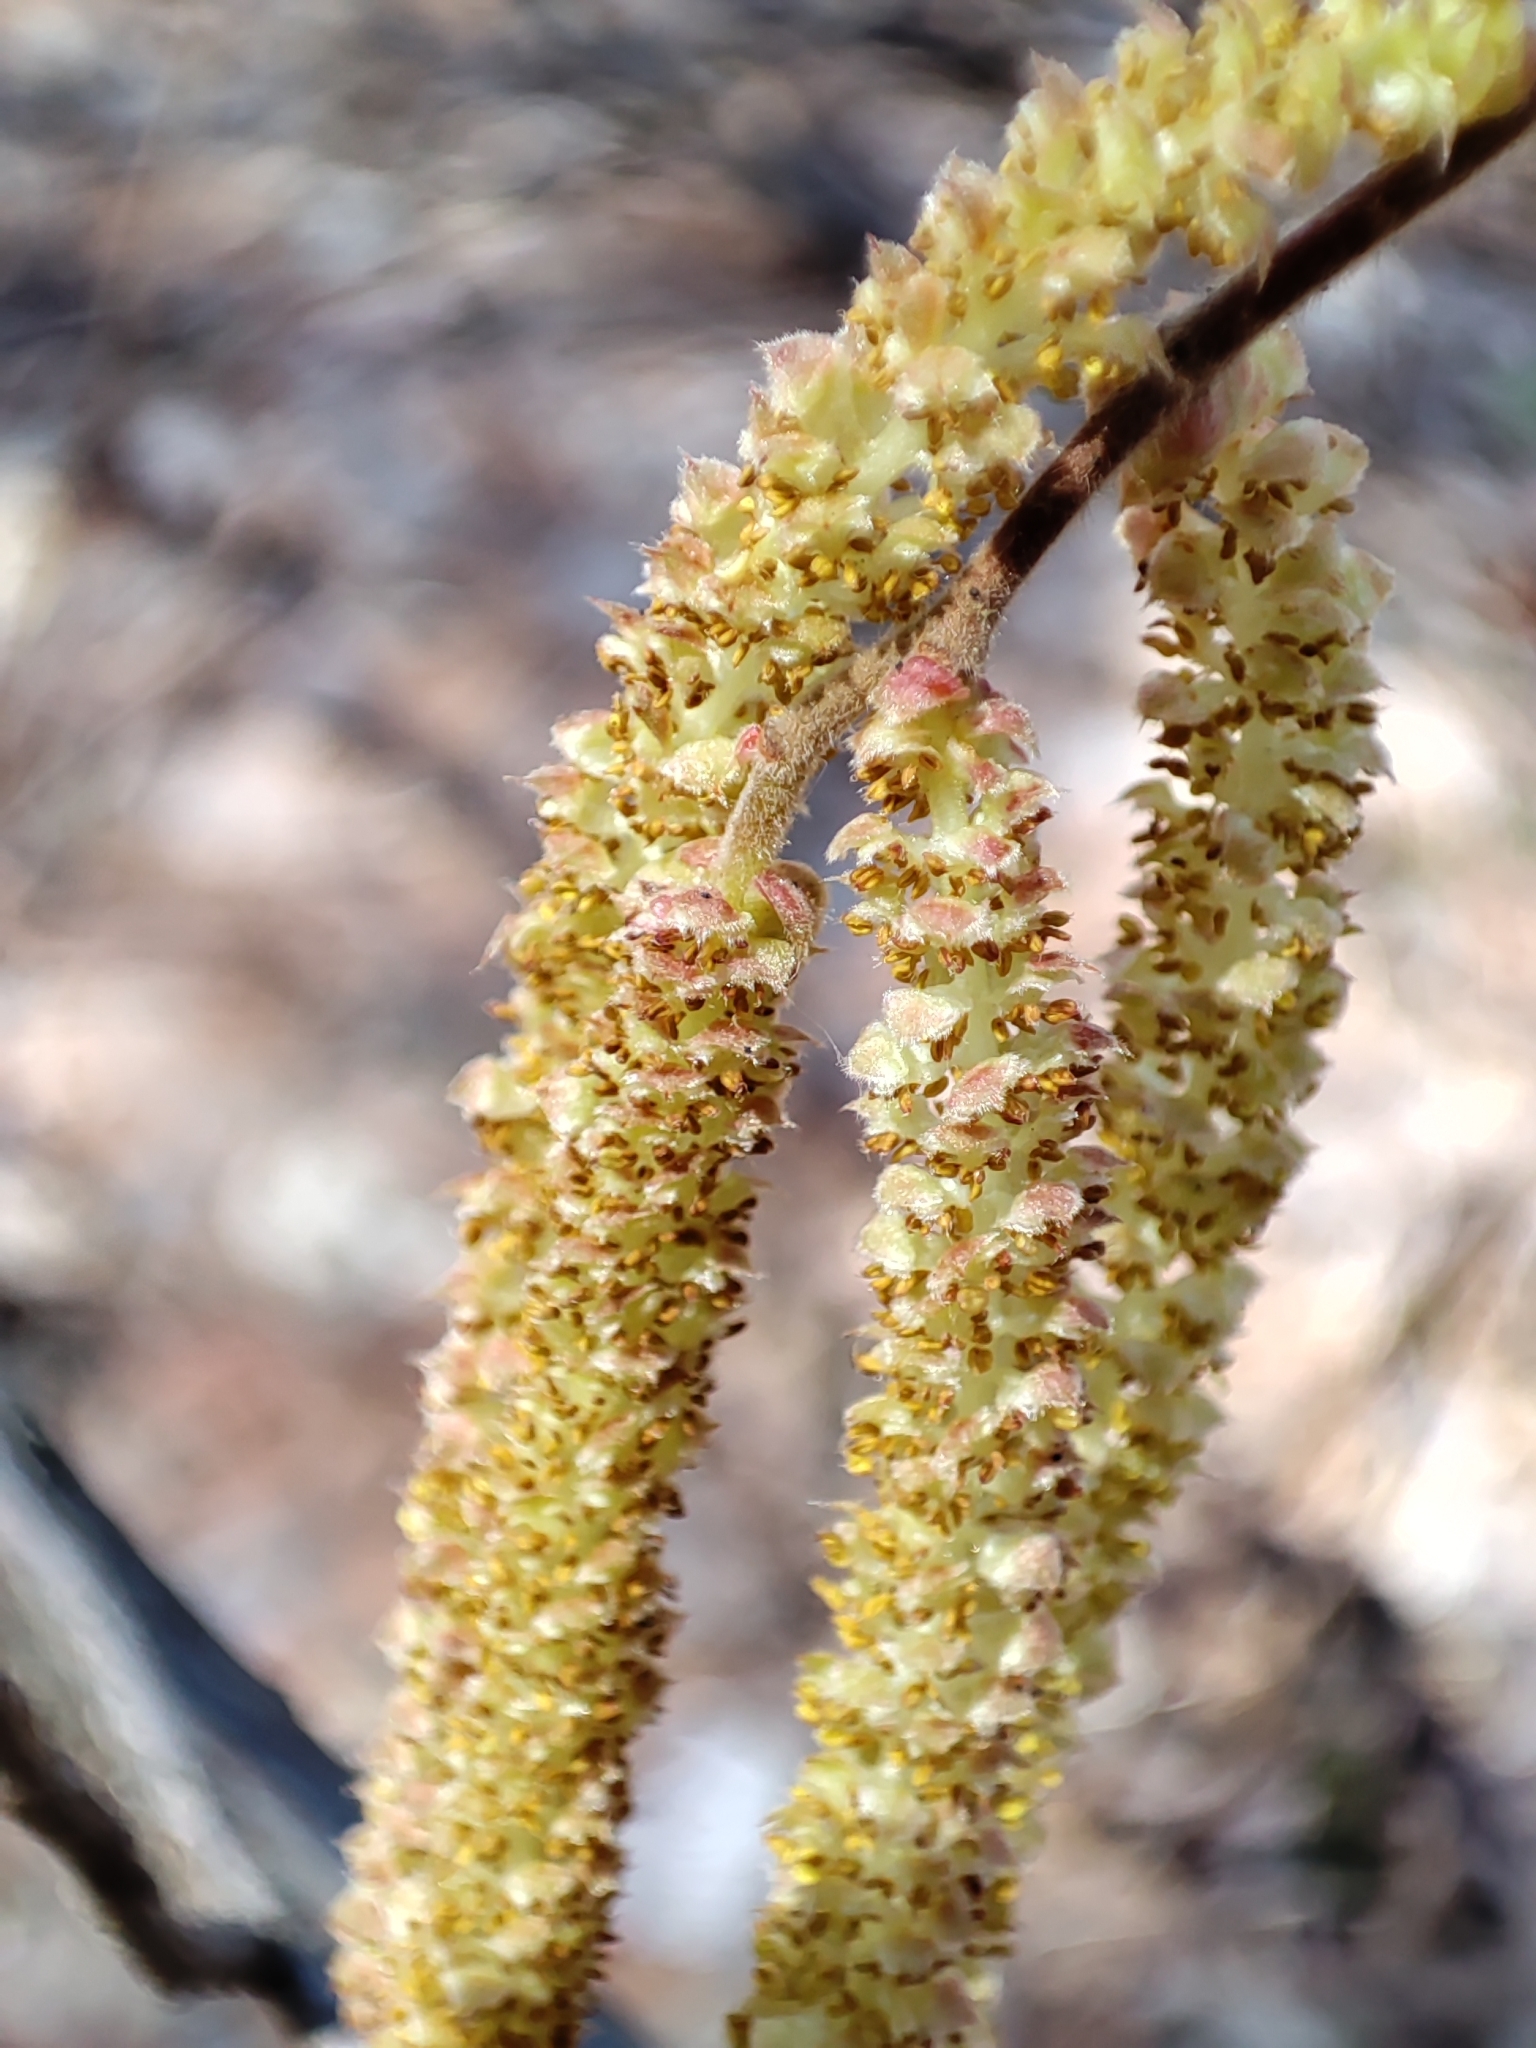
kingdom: Plantae
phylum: Tracheophyta
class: Magnoliopsida
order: Fagales
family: Betulaceae
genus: Corylus
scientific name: Corylus avellana
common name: European hazel
